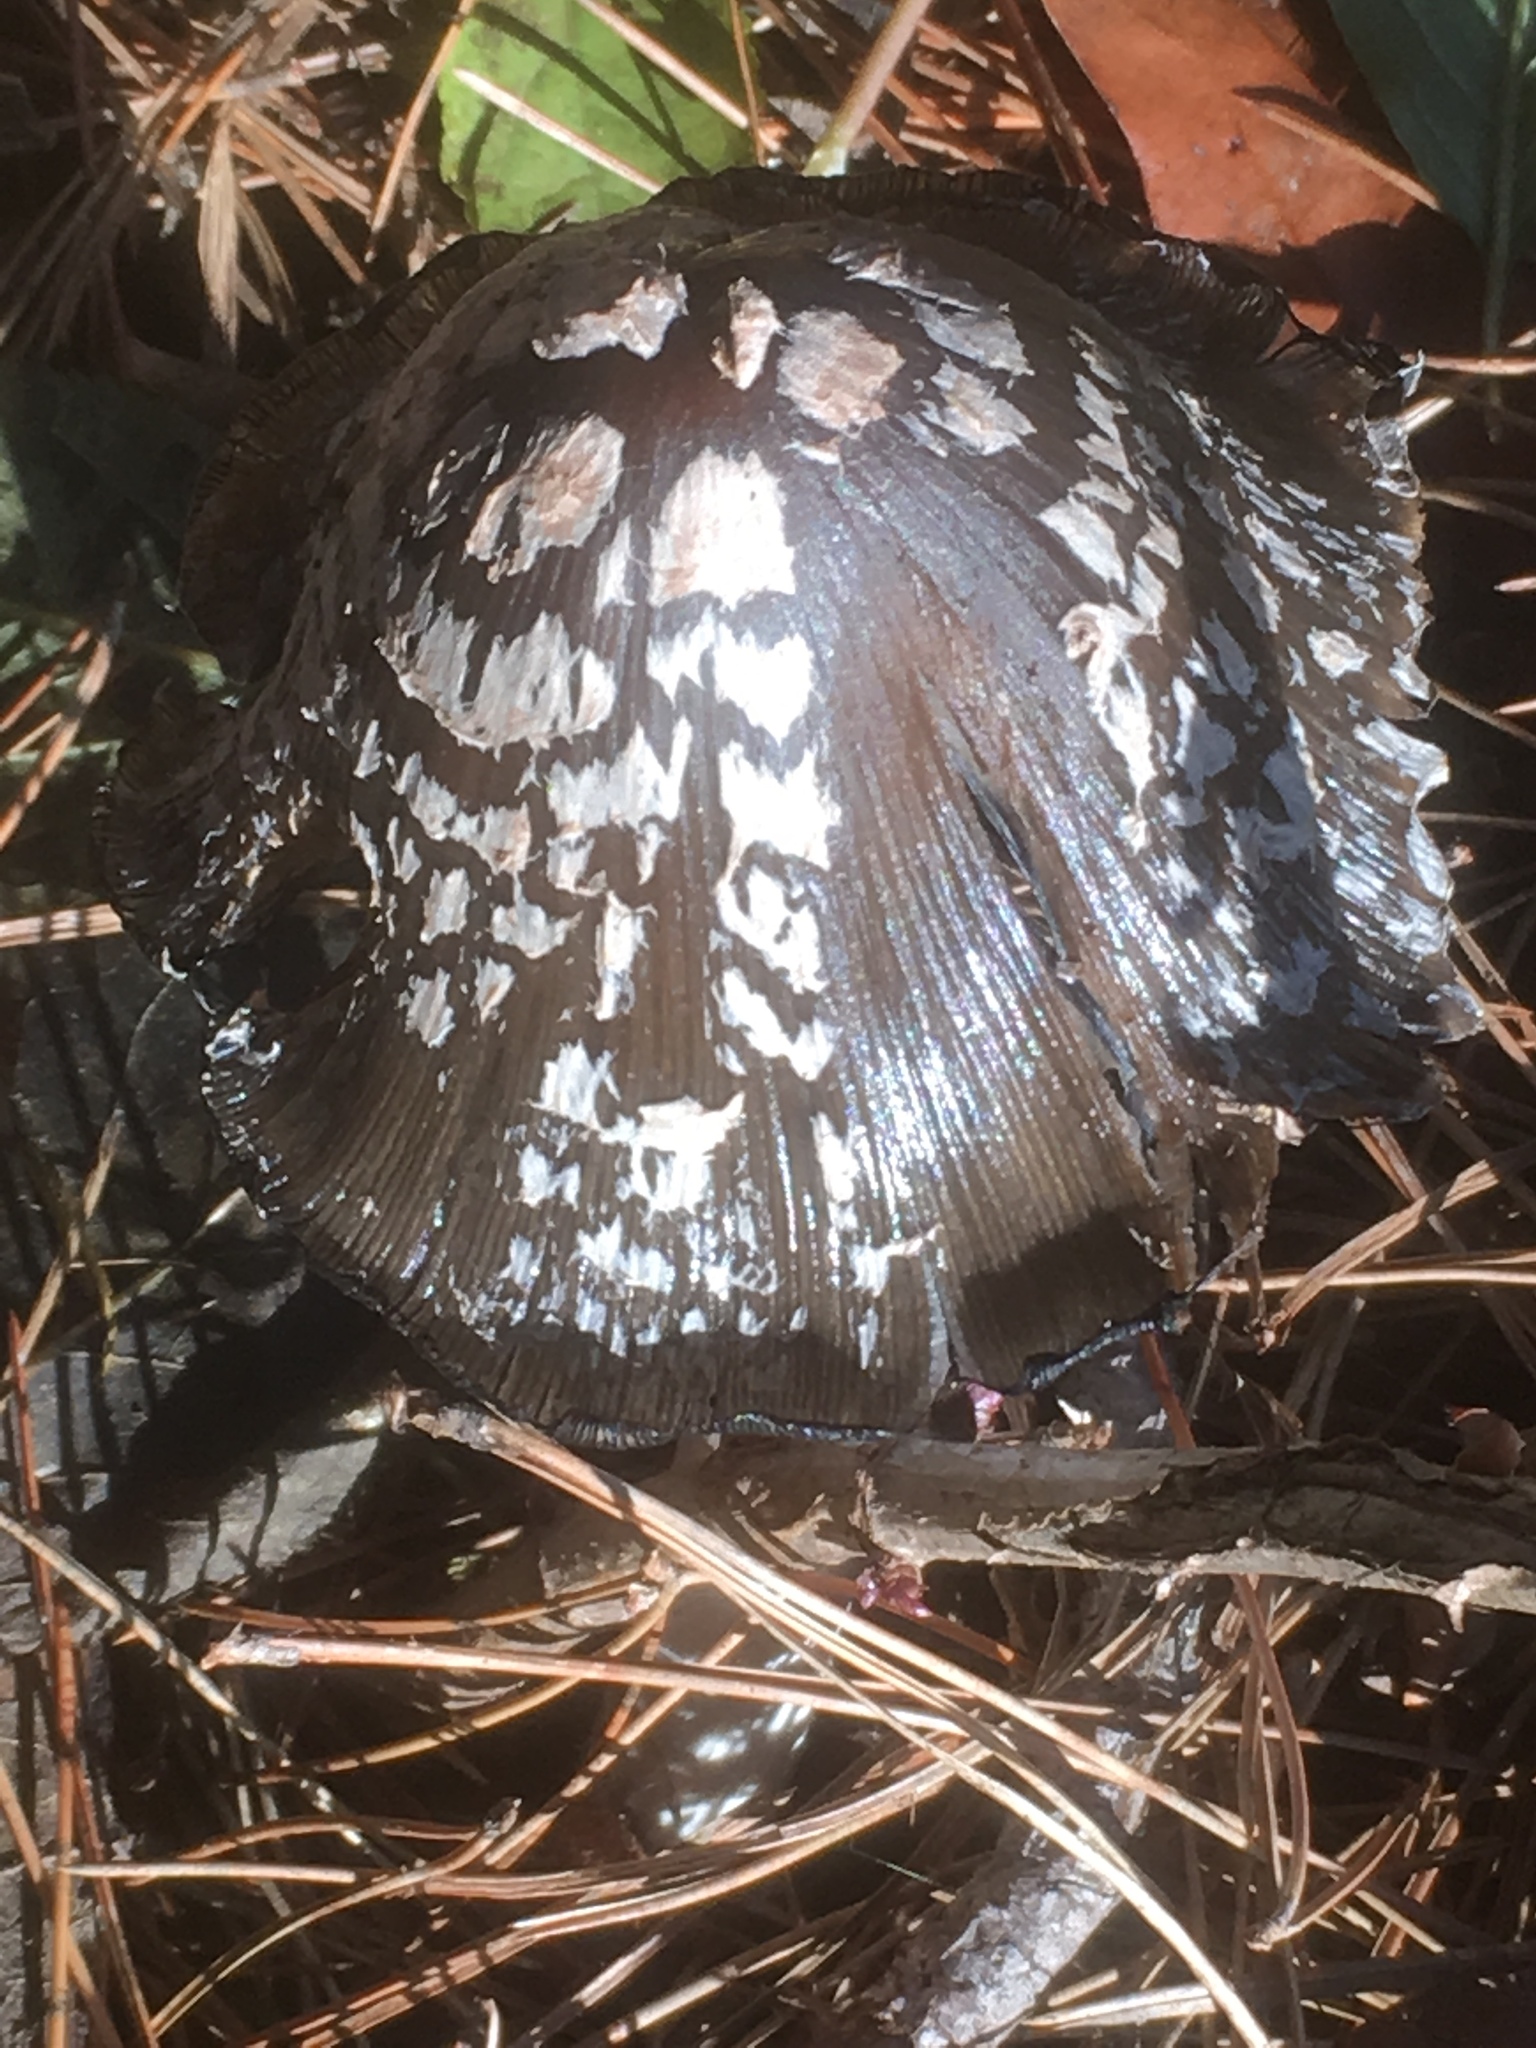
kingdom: Fungi
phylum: Basidiomycota
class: Agaricomycetes
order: Agaricales
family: Psathyrellaceae
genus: Coprinopsis
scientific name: Coprinopsis picacea
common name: Magpie inkcap
